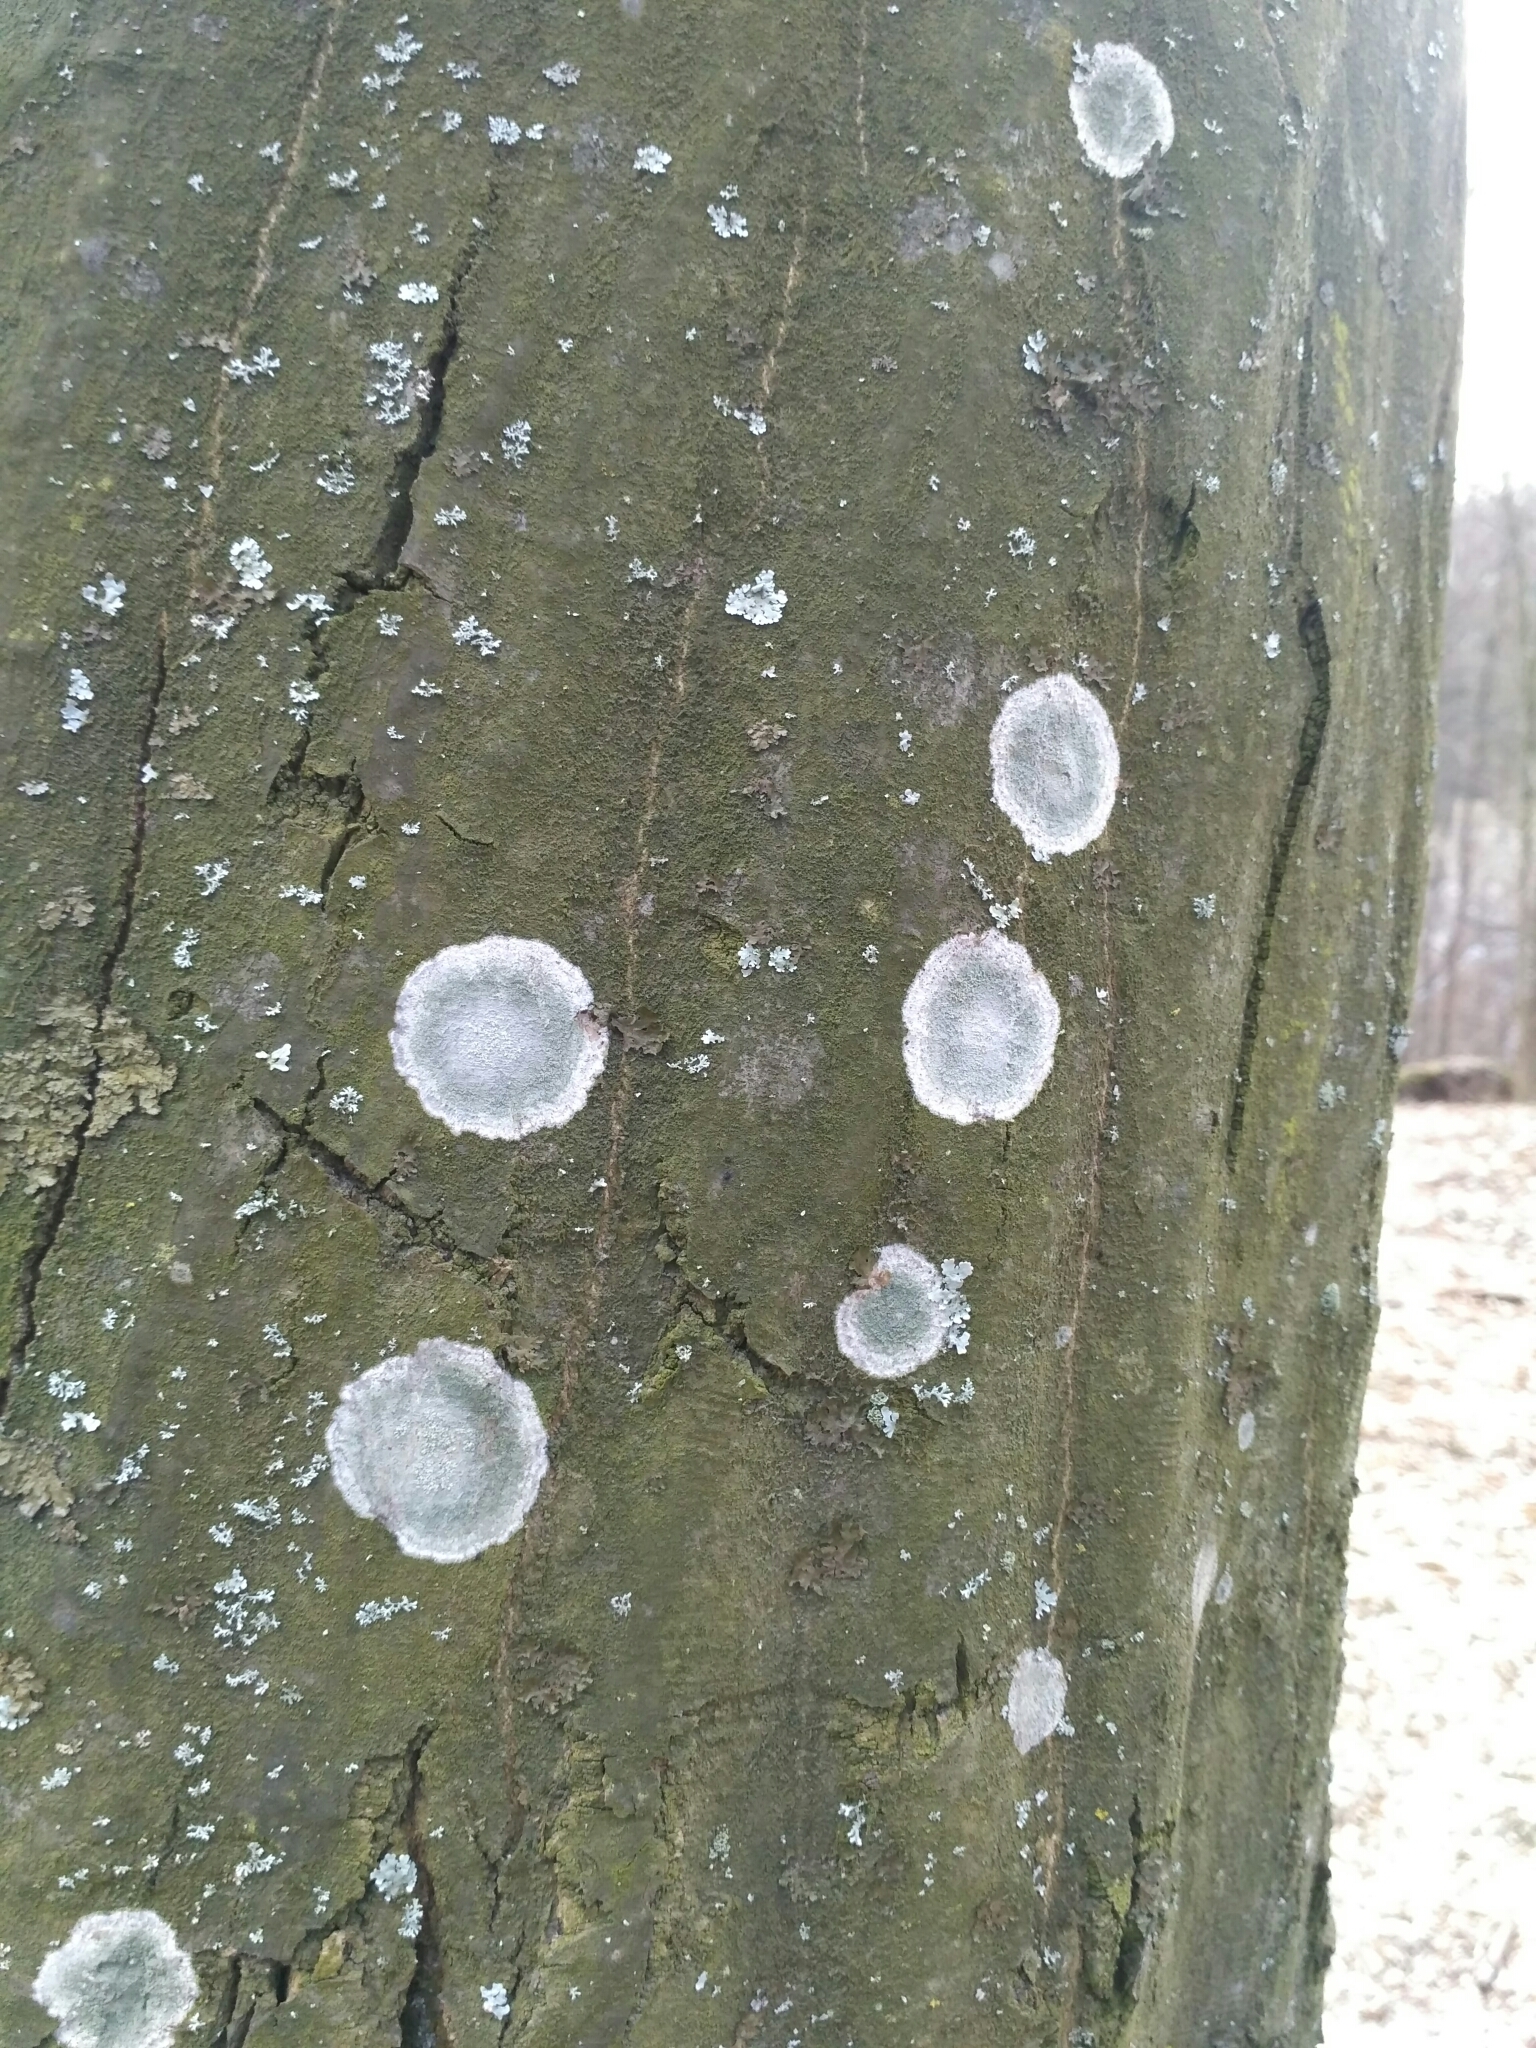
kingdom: Fungi
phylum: Ascomycota
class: Lecanoromycetes
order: Ostropales
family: Phlyctidaceae
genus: Phlyctis
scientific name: Phlyctis argena
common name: Whitewash lichen
